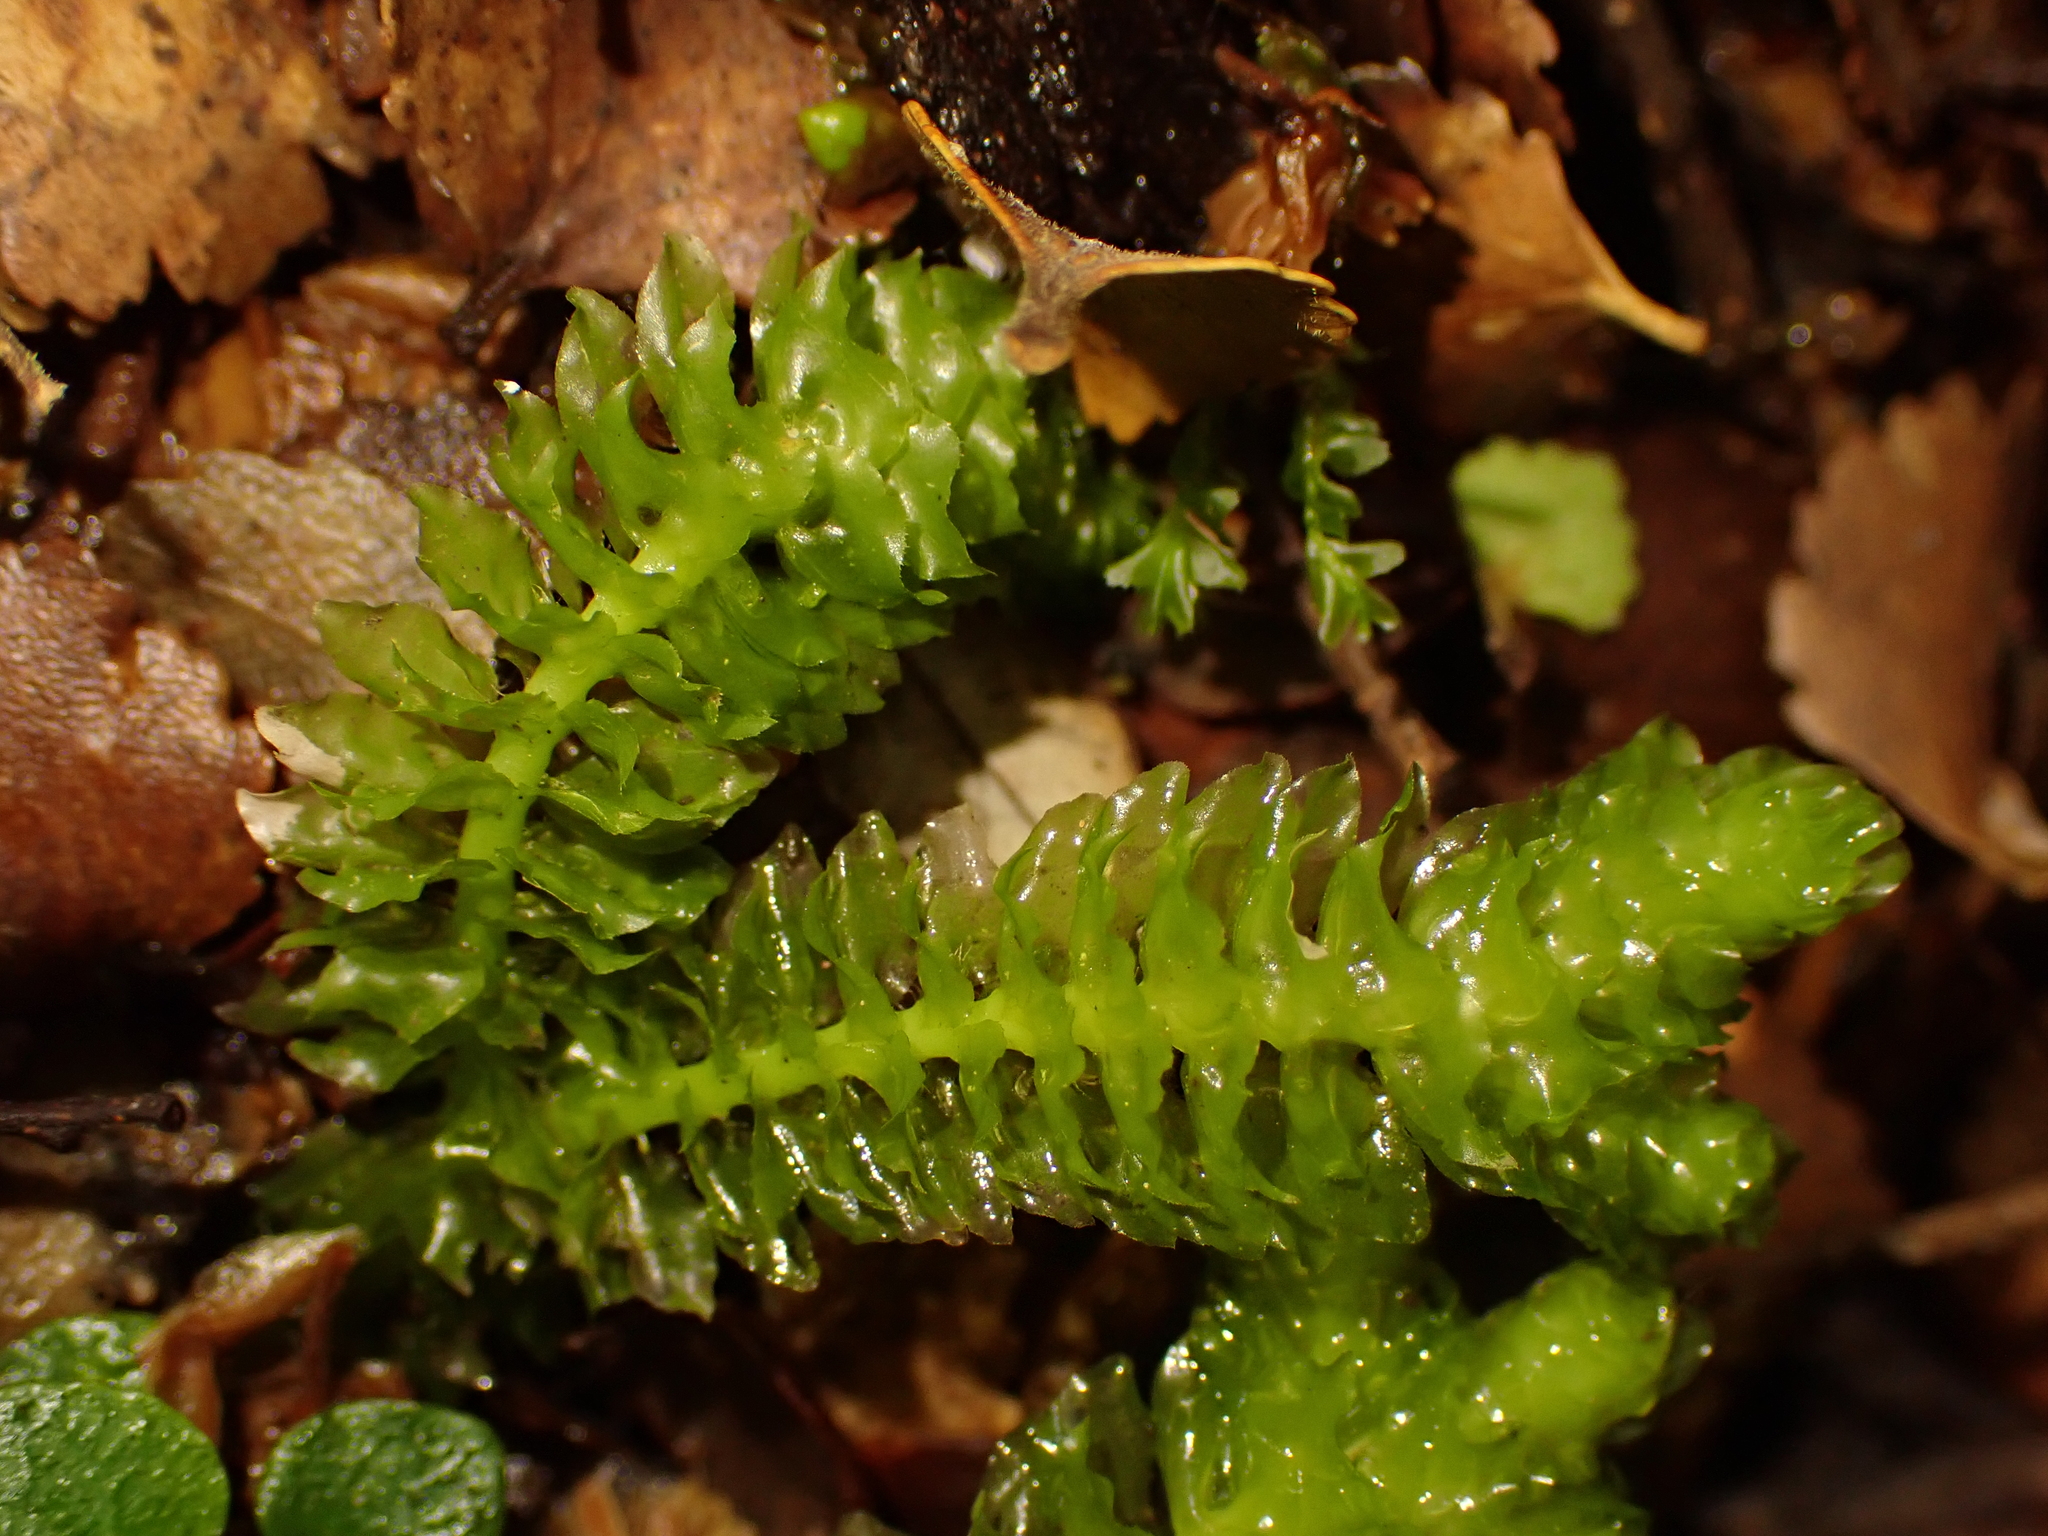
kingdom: Plantae
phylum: Marchantiophyta
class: Jungermanniopsida
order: Jungermanniales
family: Schistochilaceae
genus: Schistochila
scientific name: Schistochila nobilis
